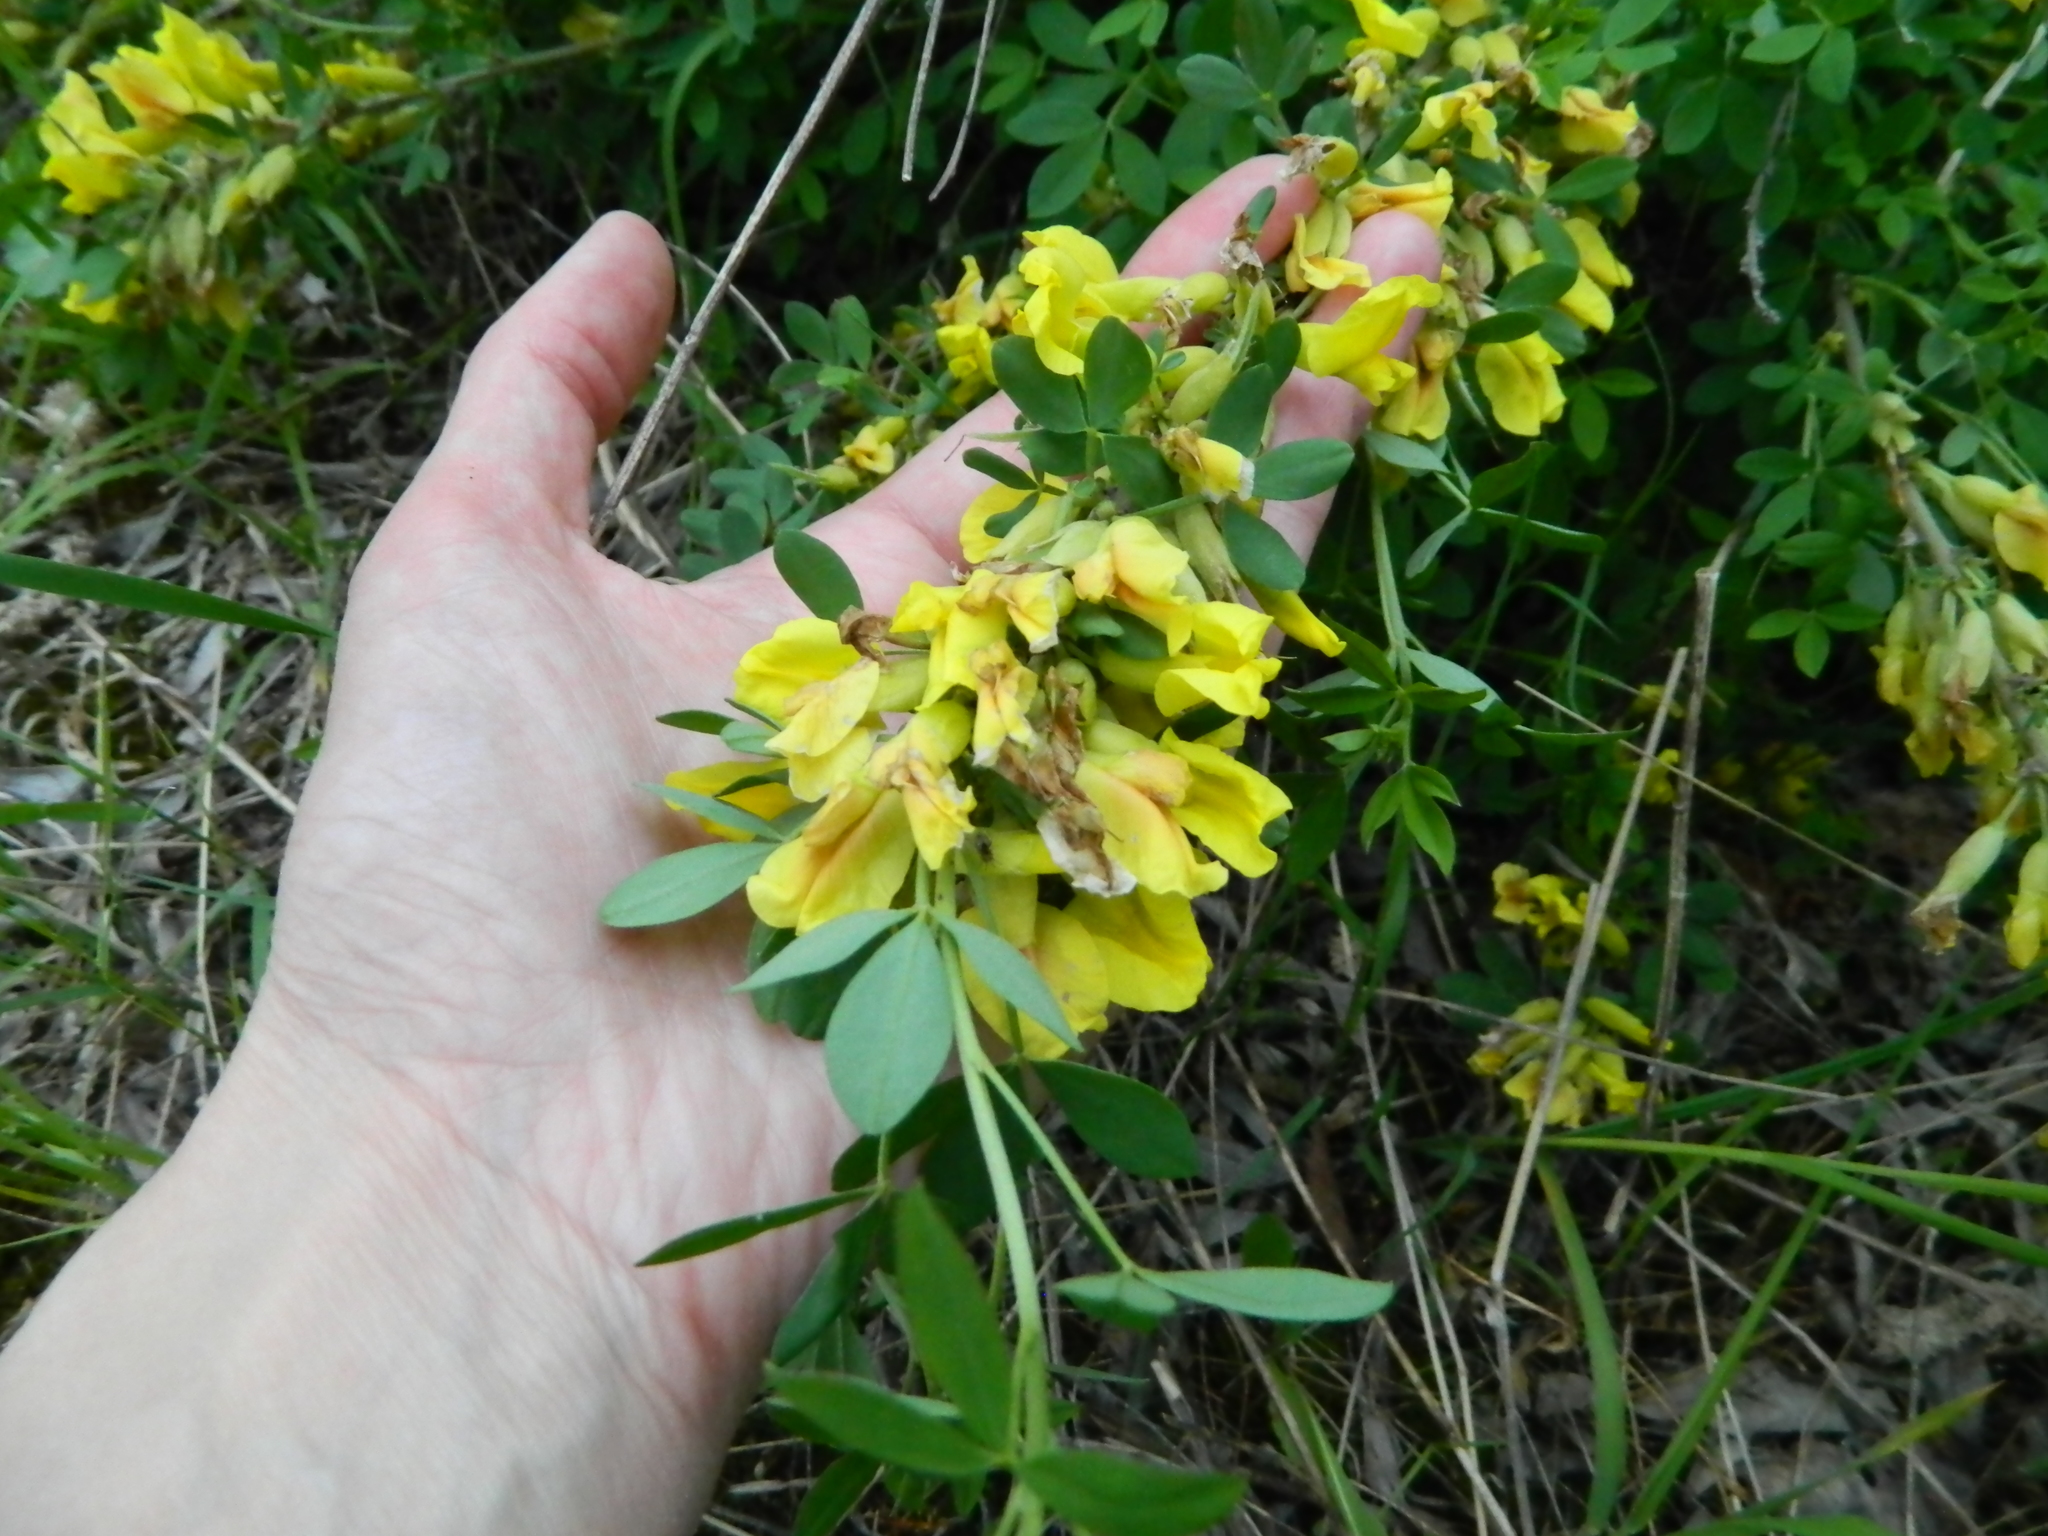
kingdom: Plantae
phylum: Tracheophyta
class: Magnoliopsida
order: Fabales
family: Fabaceae
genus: Chamaecytisus
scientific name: Chamaecytisus ruthenicus
